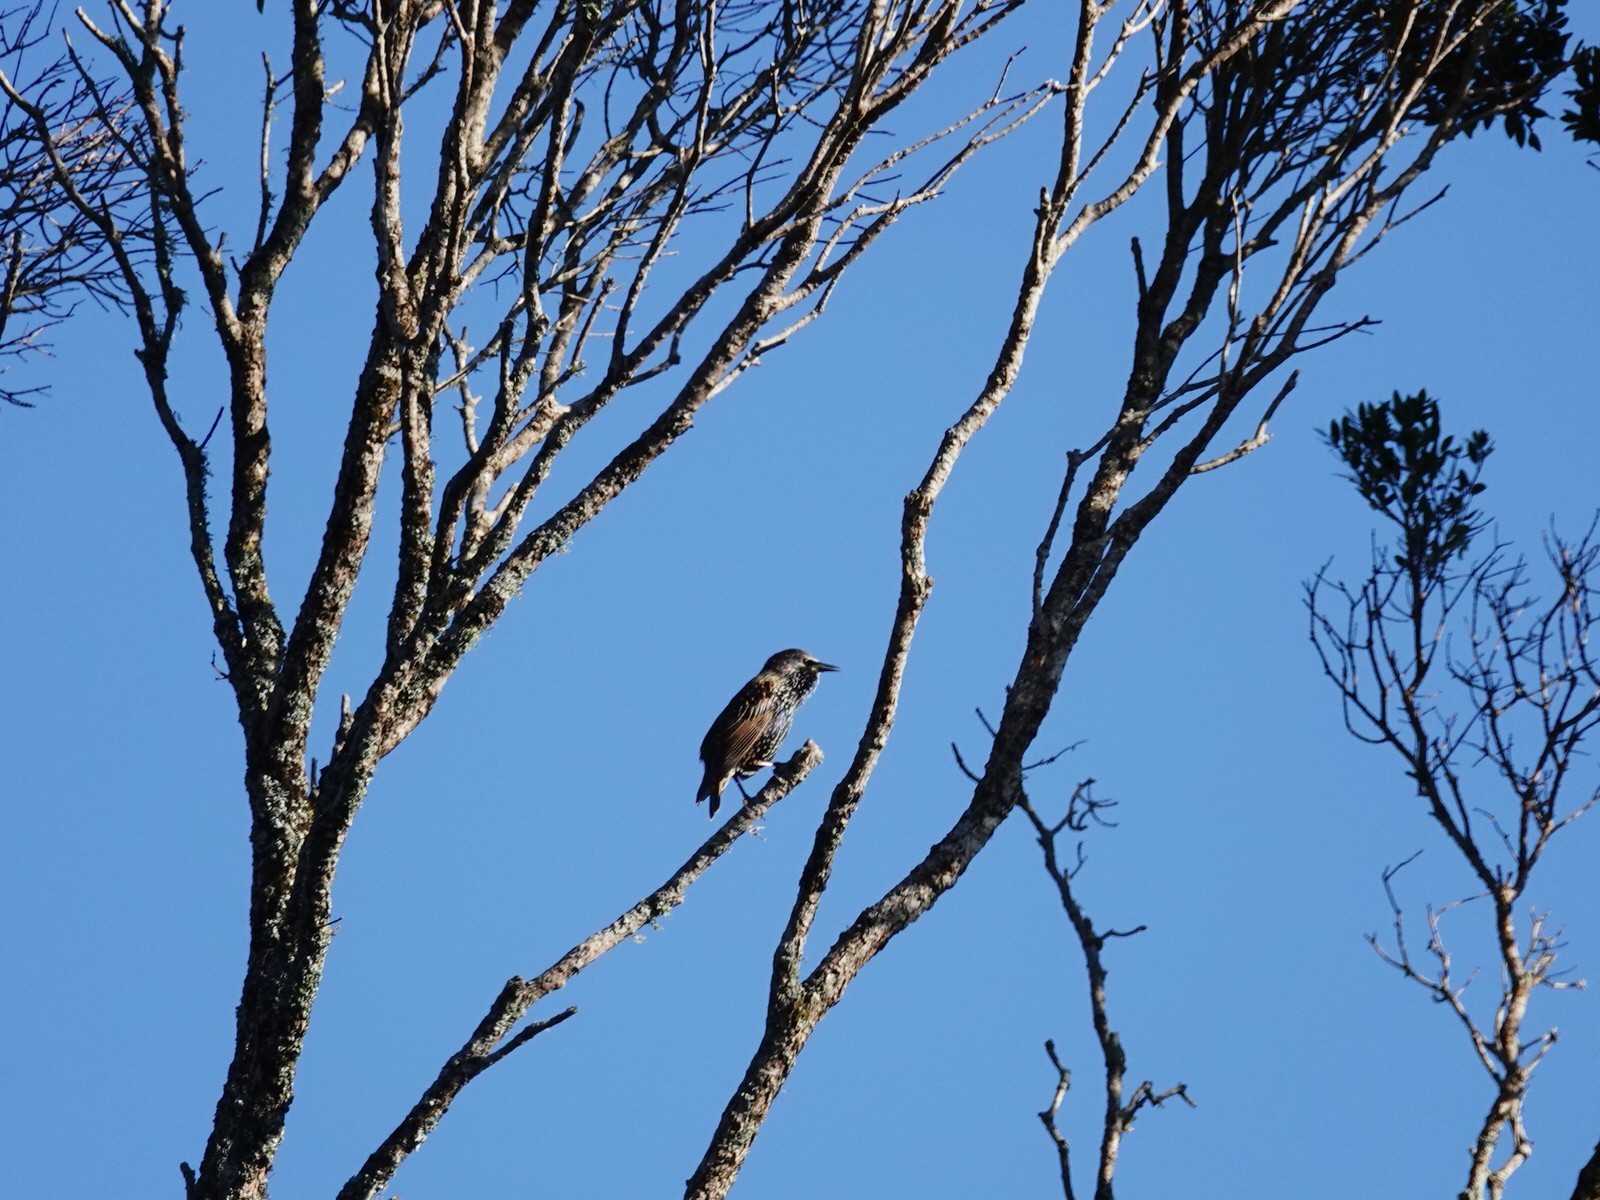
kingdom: Animalia
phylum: Chordata
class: Aves
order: Passeriformes
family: Sturnidae
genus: Sturnus
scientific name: Sturnus vulgaris
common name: Common starling
